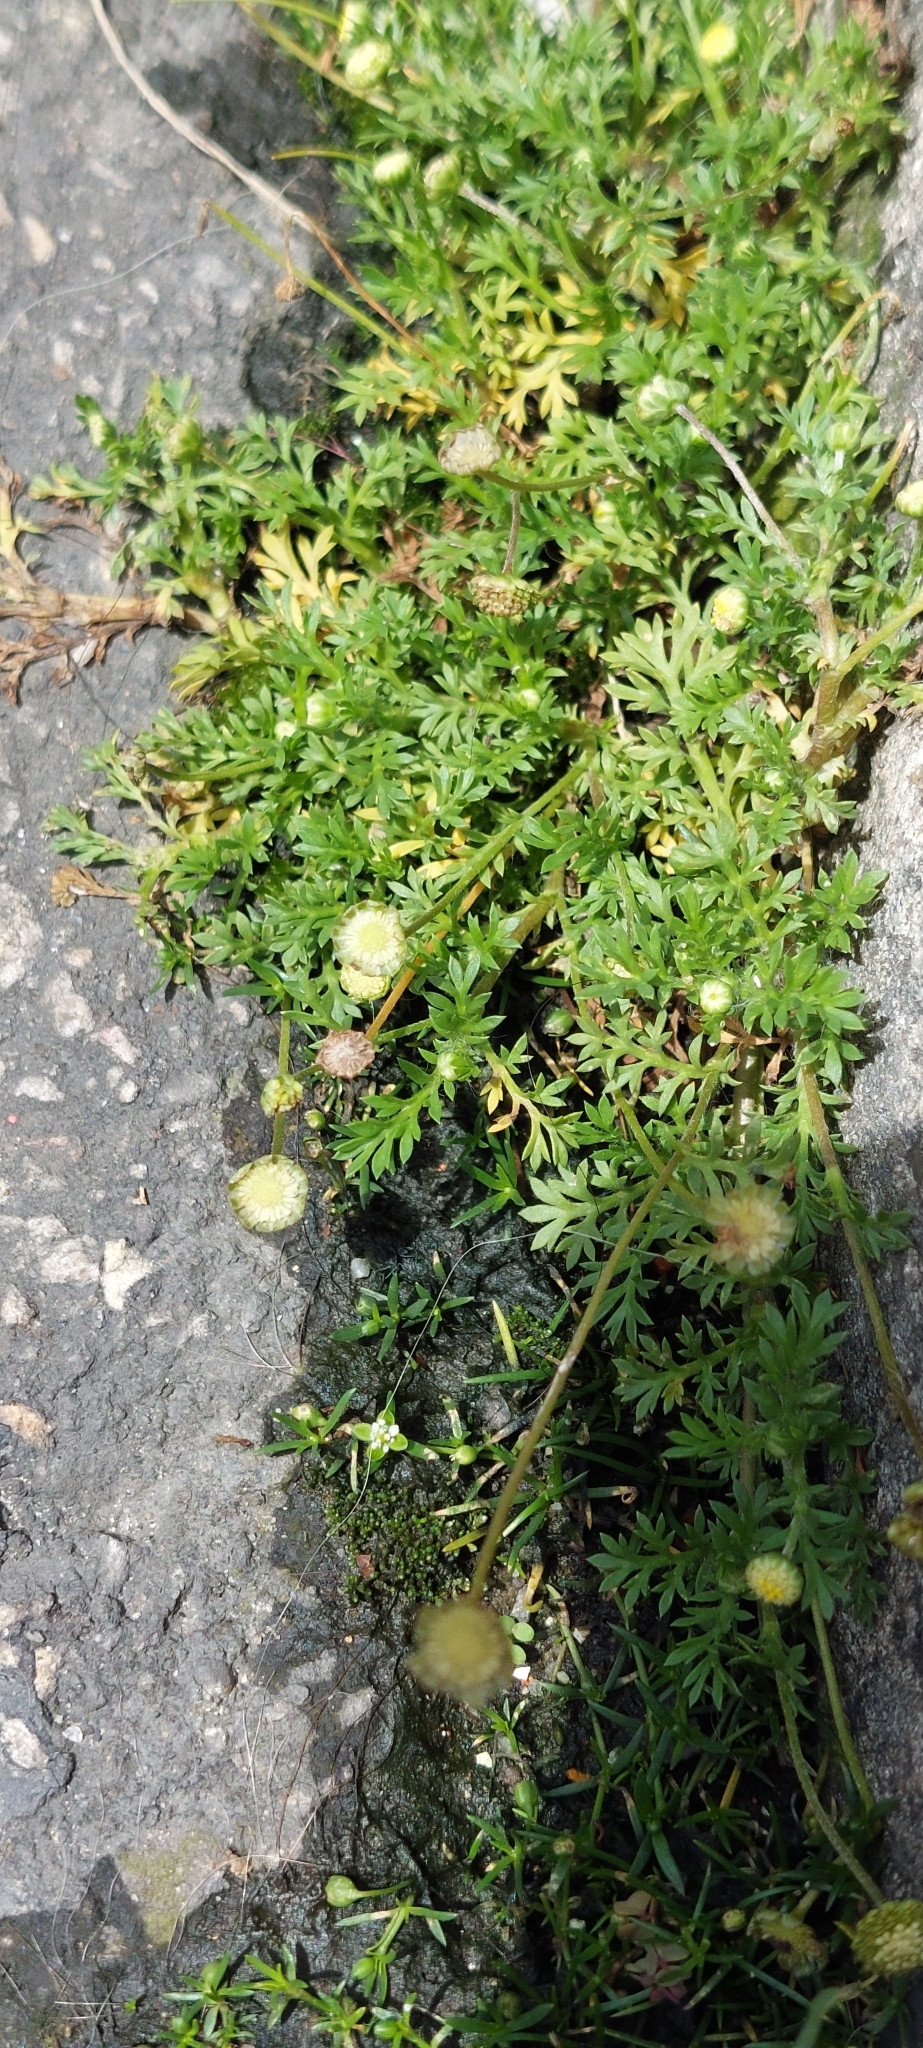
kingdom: Plantae
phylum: Tracheophyta
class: Magnoliopsida
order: Asterales
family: Asteraceae
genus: Cotula
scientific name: Cotula australis
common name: Australian waterbuttons
